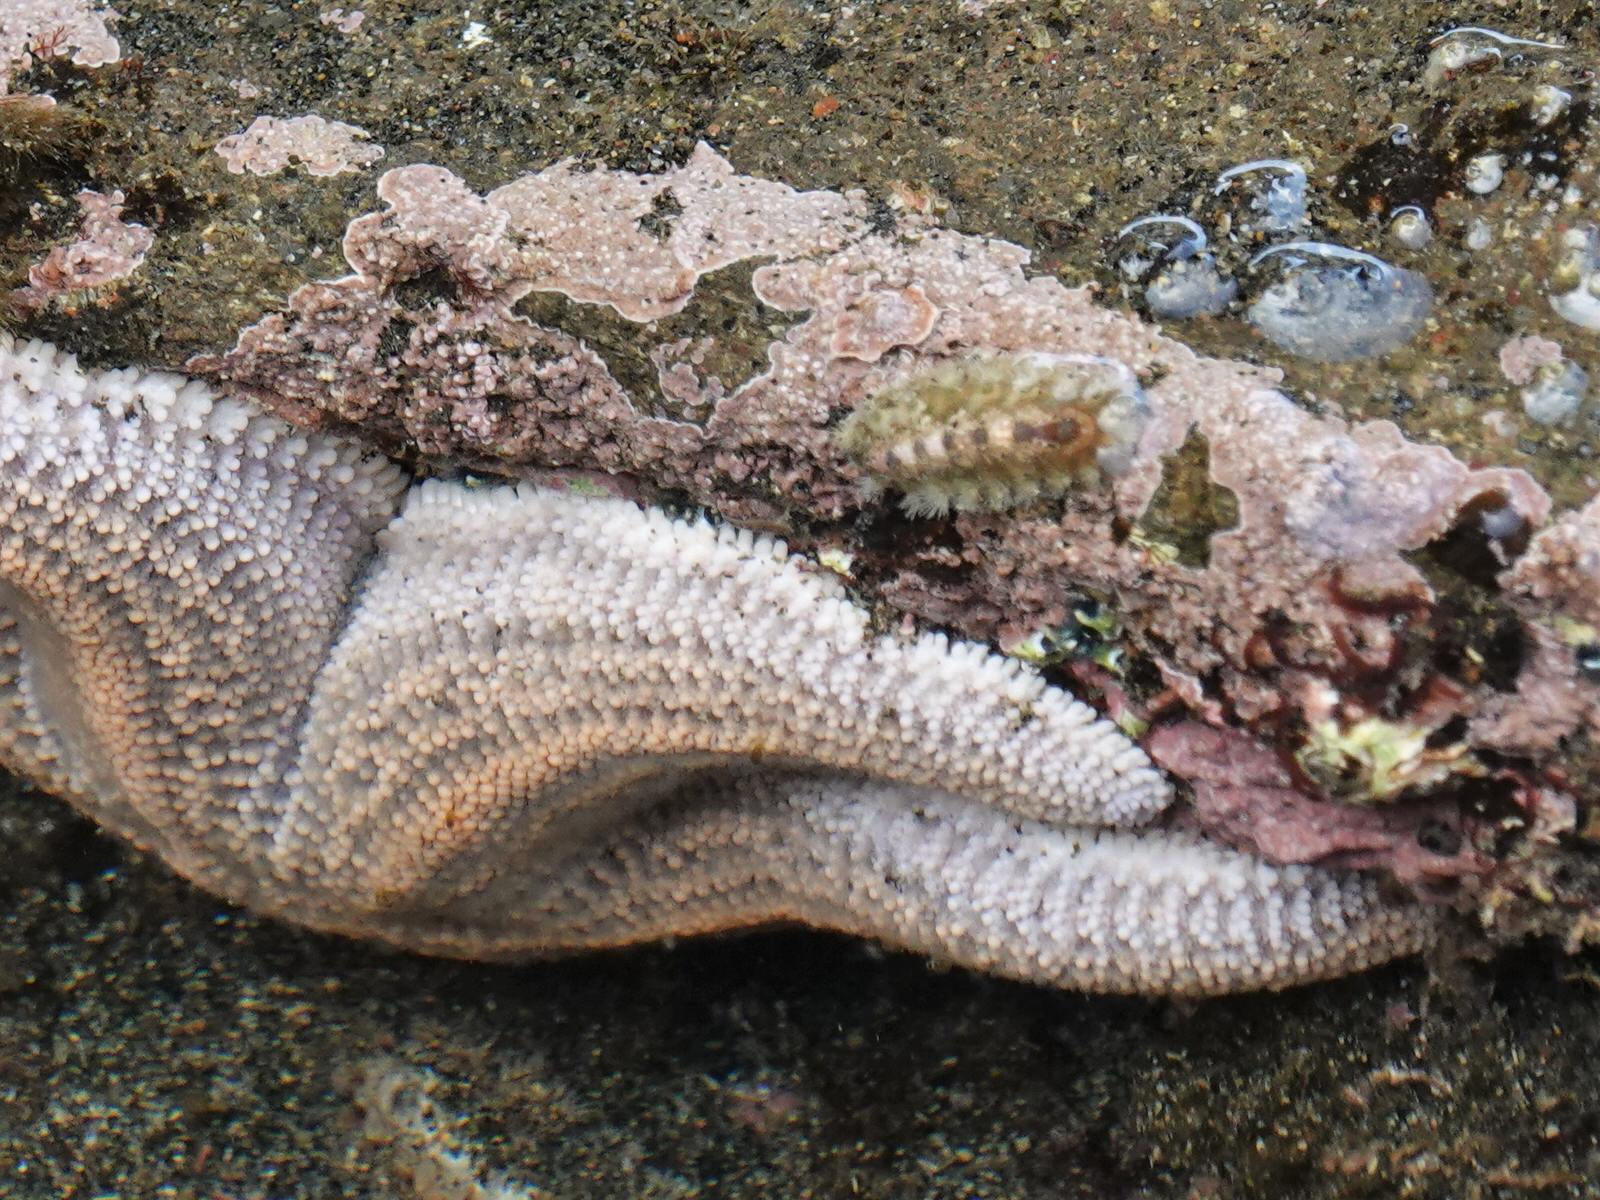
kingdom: Animalia
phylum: Mollusca
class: Polyplacophora
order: Chitonida
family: Acanthochitonidae
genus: Acanthochitona
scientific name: Acanthochitona zelandica
